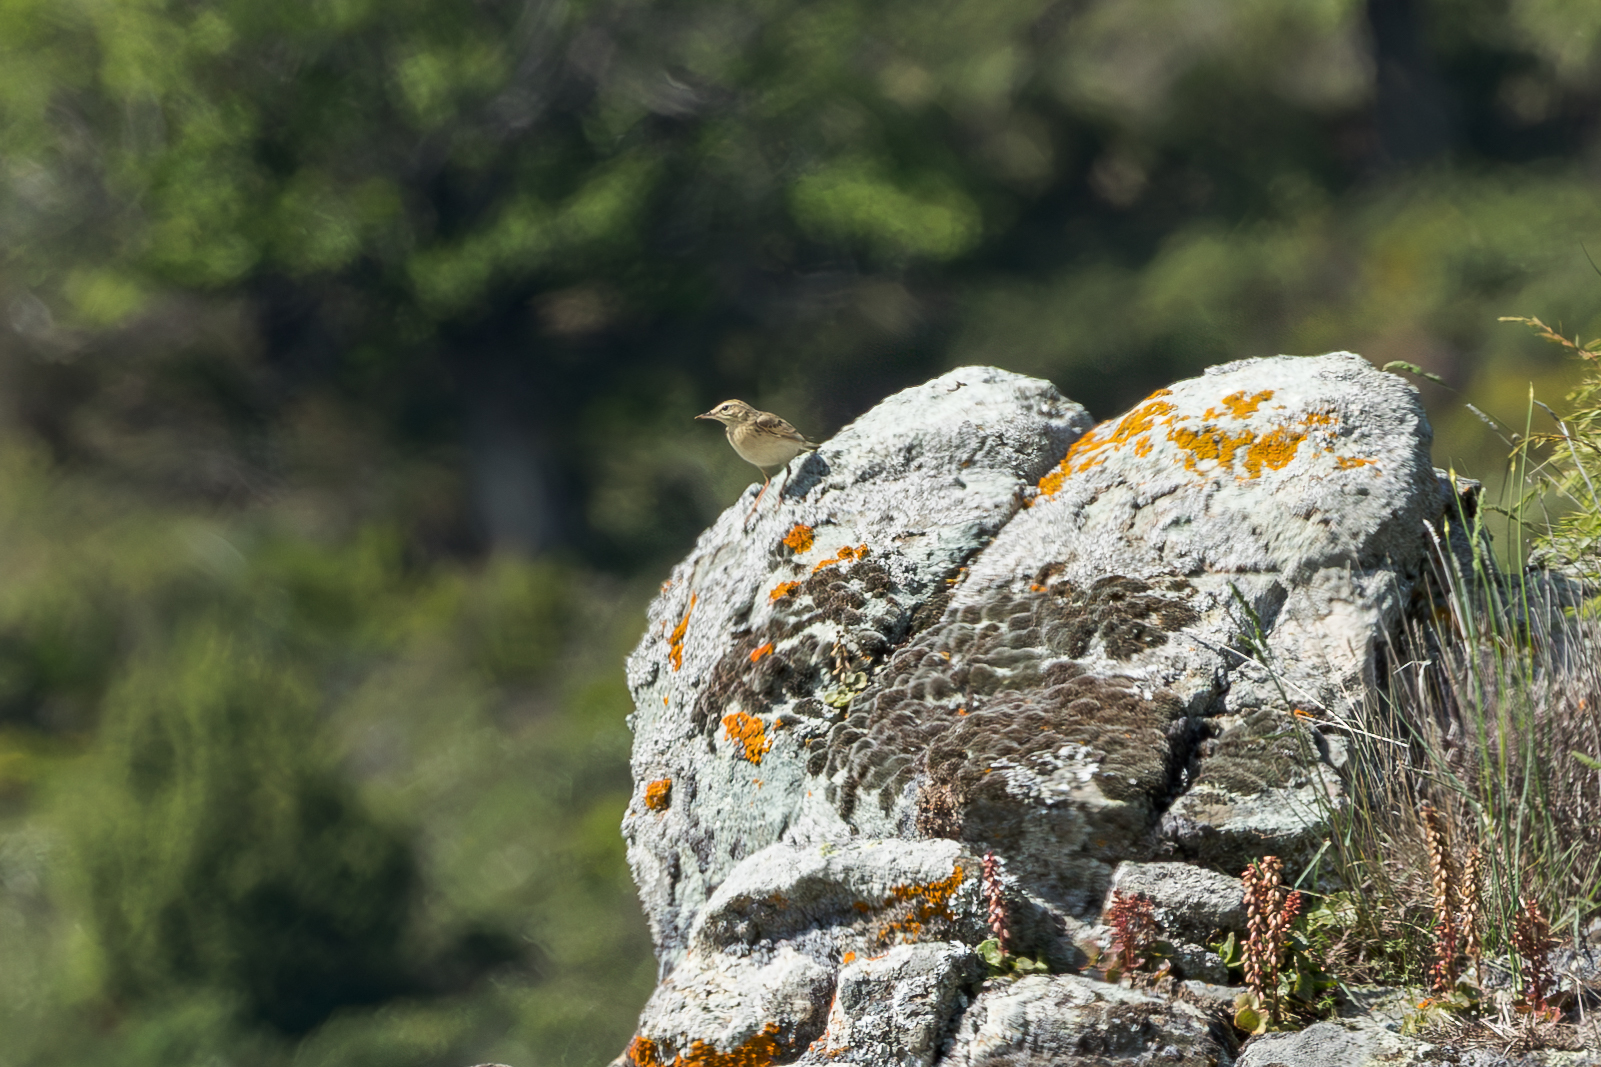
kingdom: Animalia
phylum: Chordata
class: Aves
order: Passeriformes
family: Motacillidae
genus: Anthus
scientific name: Anthus campestris
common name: Tawny pipit
